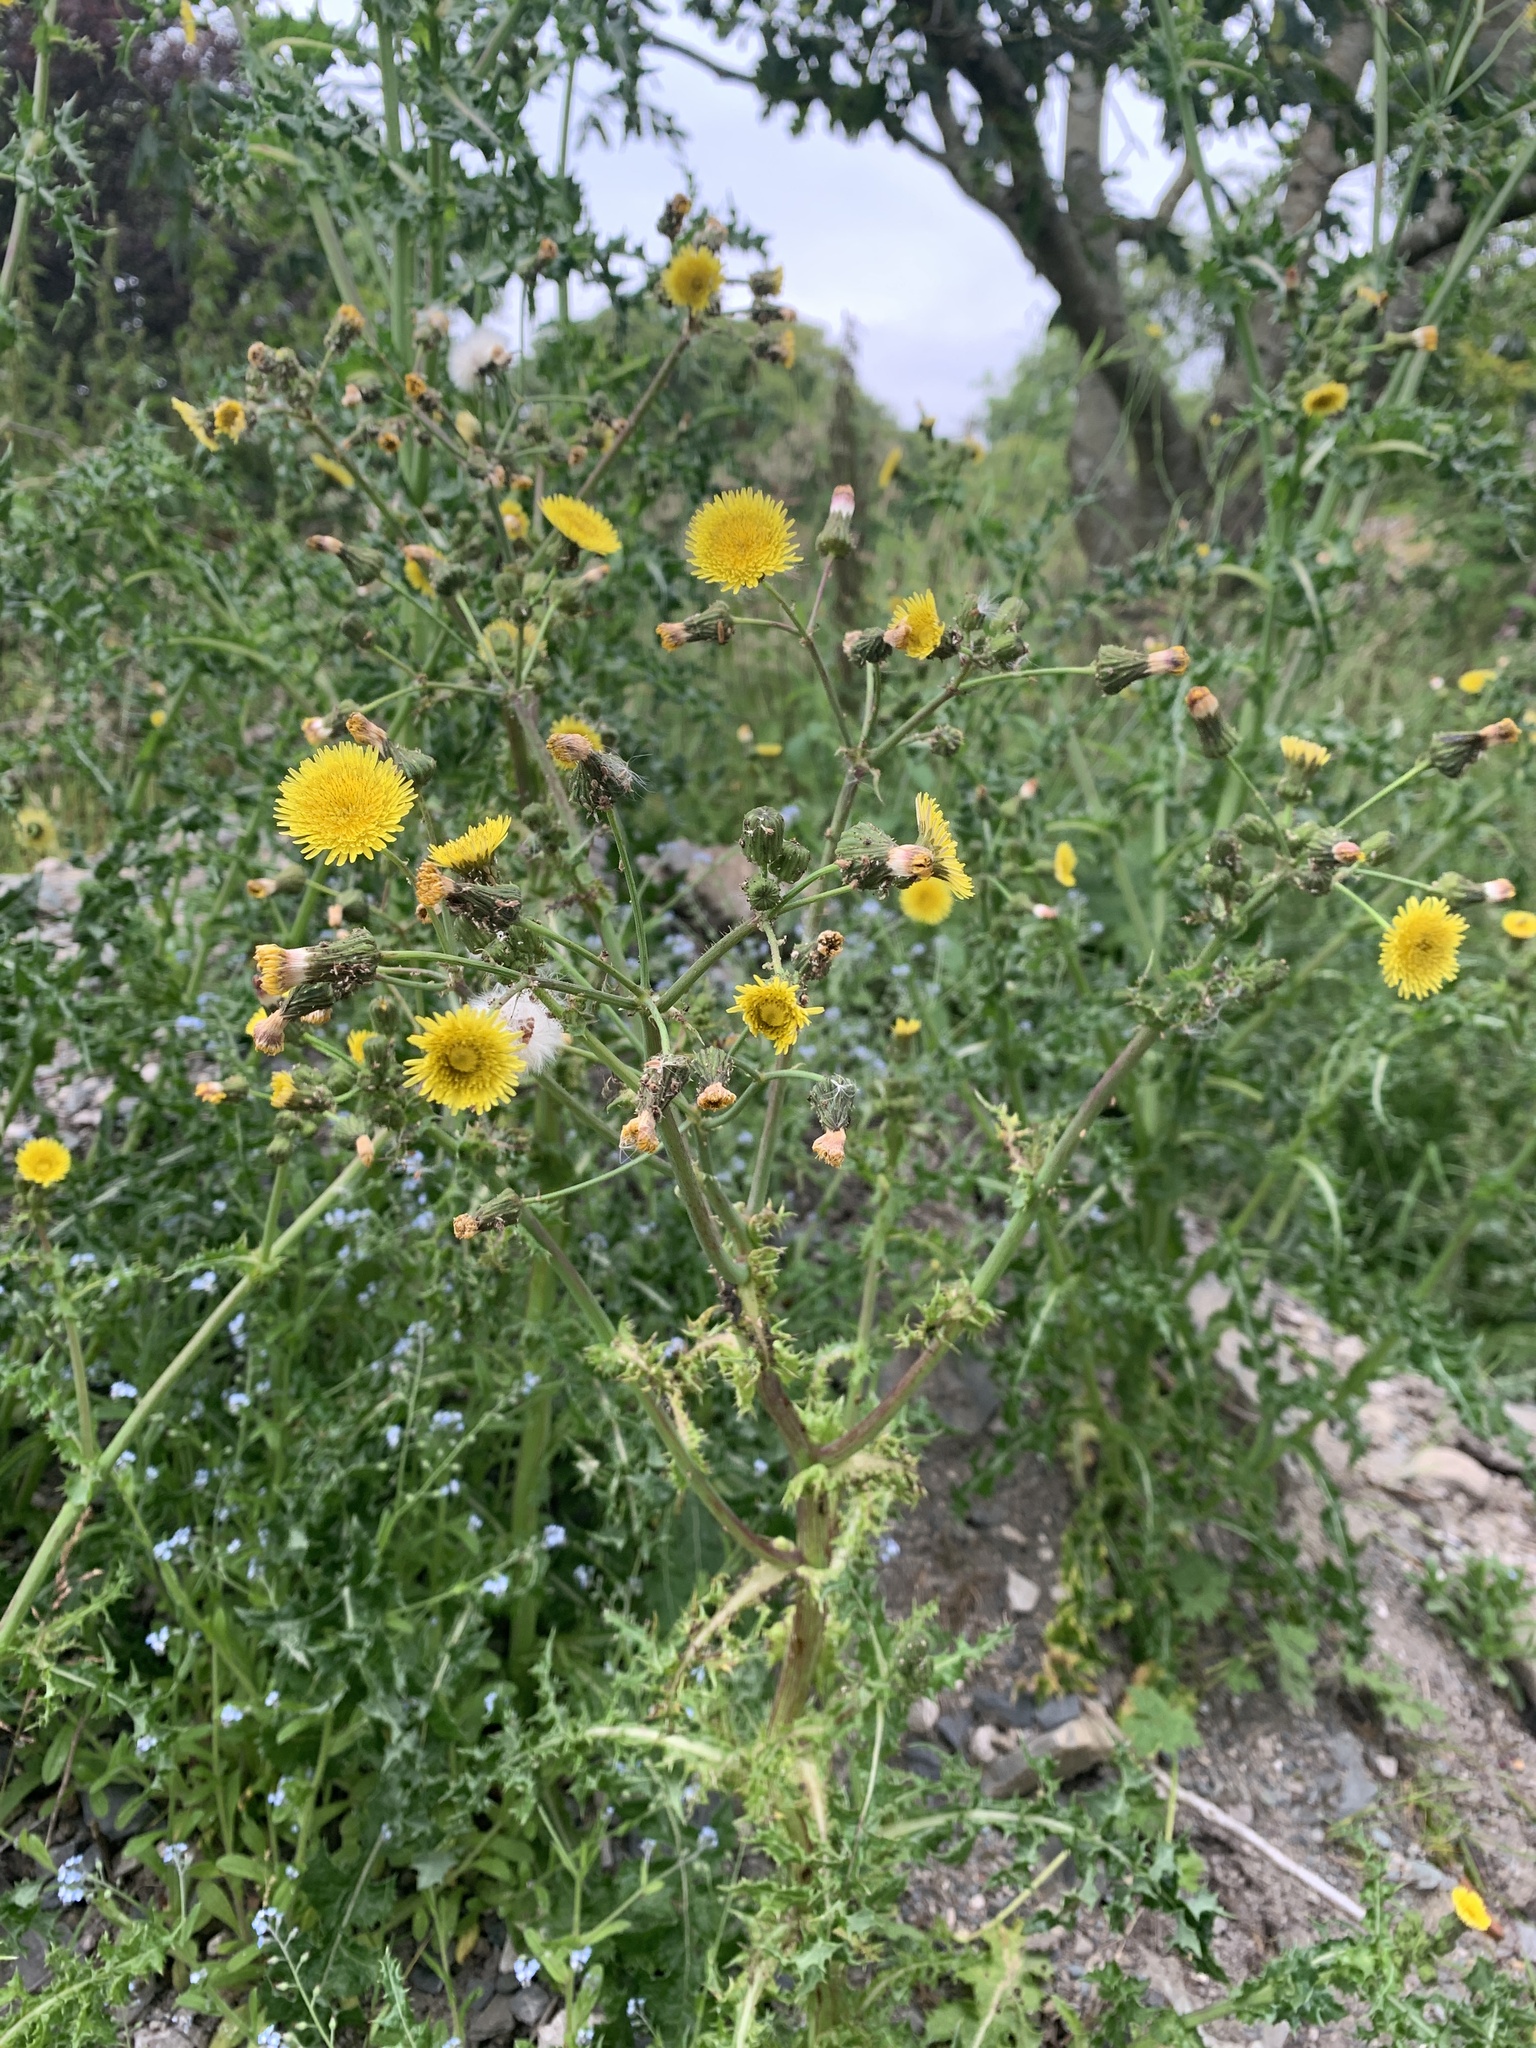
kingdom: Plantae
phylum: Tracheophyta
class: Magnoliopsida
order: Asterales
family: Asteraceae
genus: Sonchus
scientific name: Sonchus asper
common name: Prickly sow-thistle
